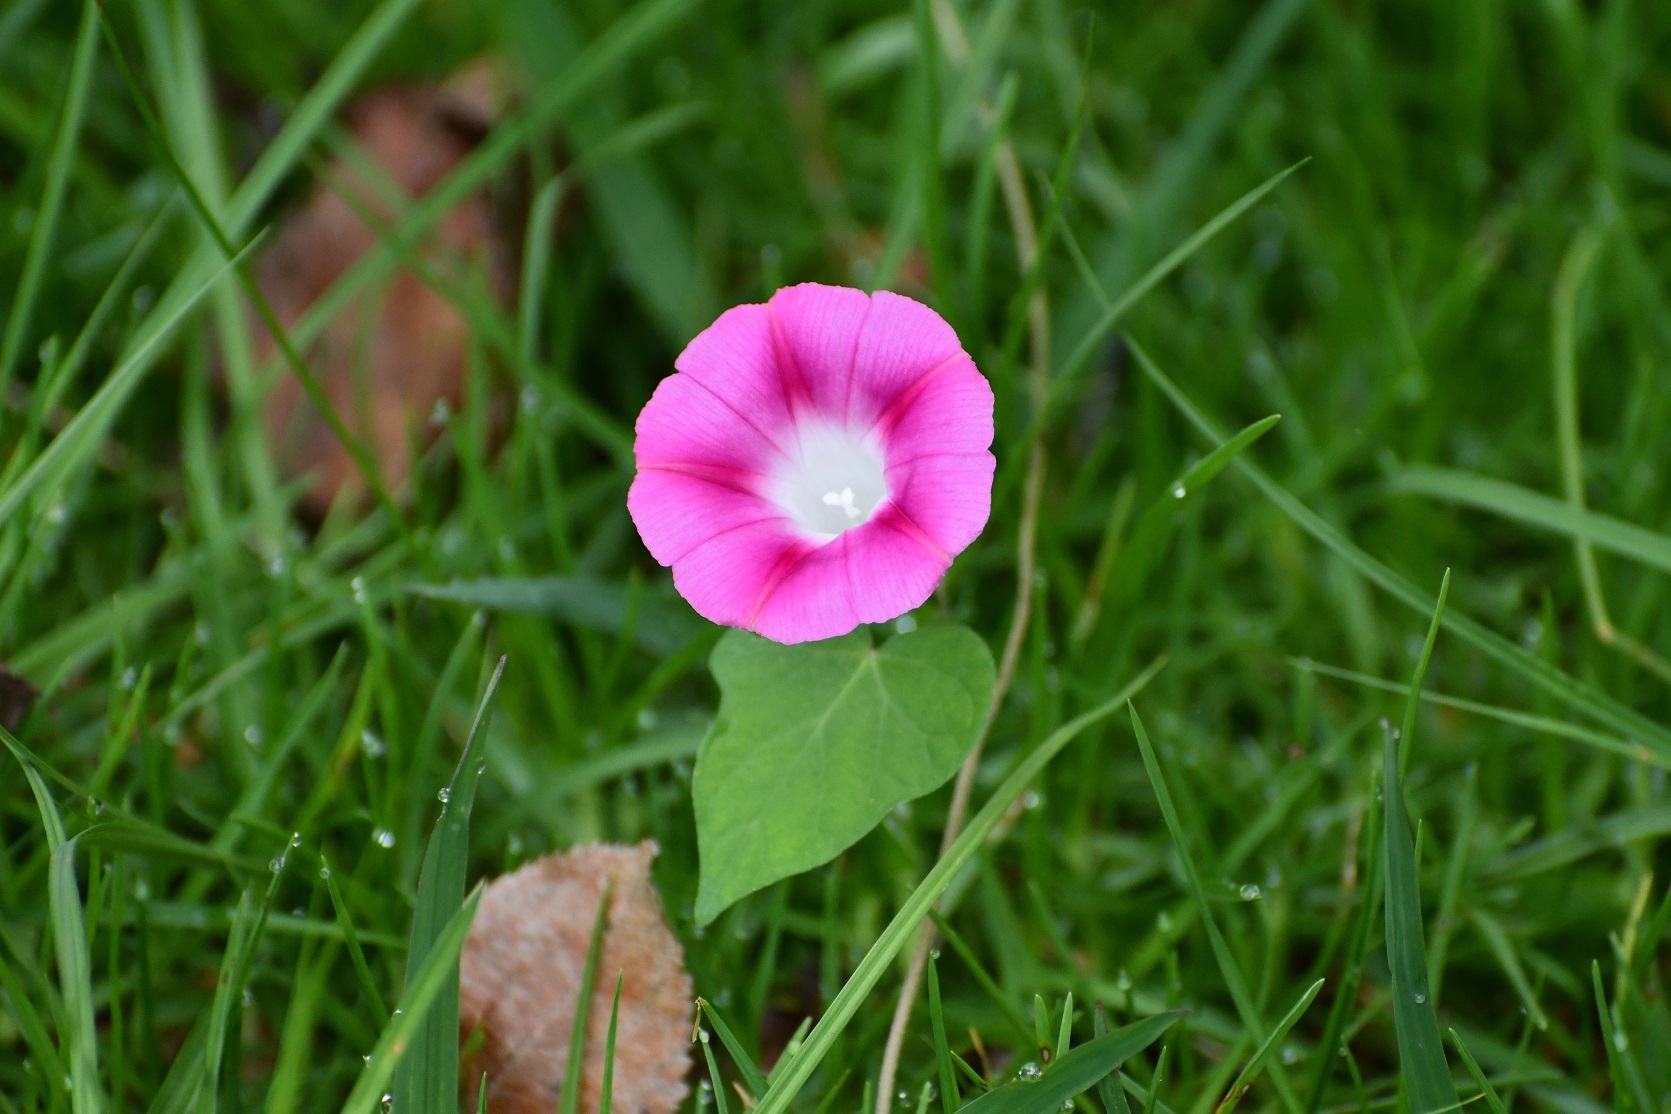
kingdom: Plantae
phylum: Tracheophyta
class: Magnoliopsida
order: Solanales
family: Convolvulaceae
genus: Ipomoea
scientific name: Ipomoea purpurea
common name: Common morning-glory
